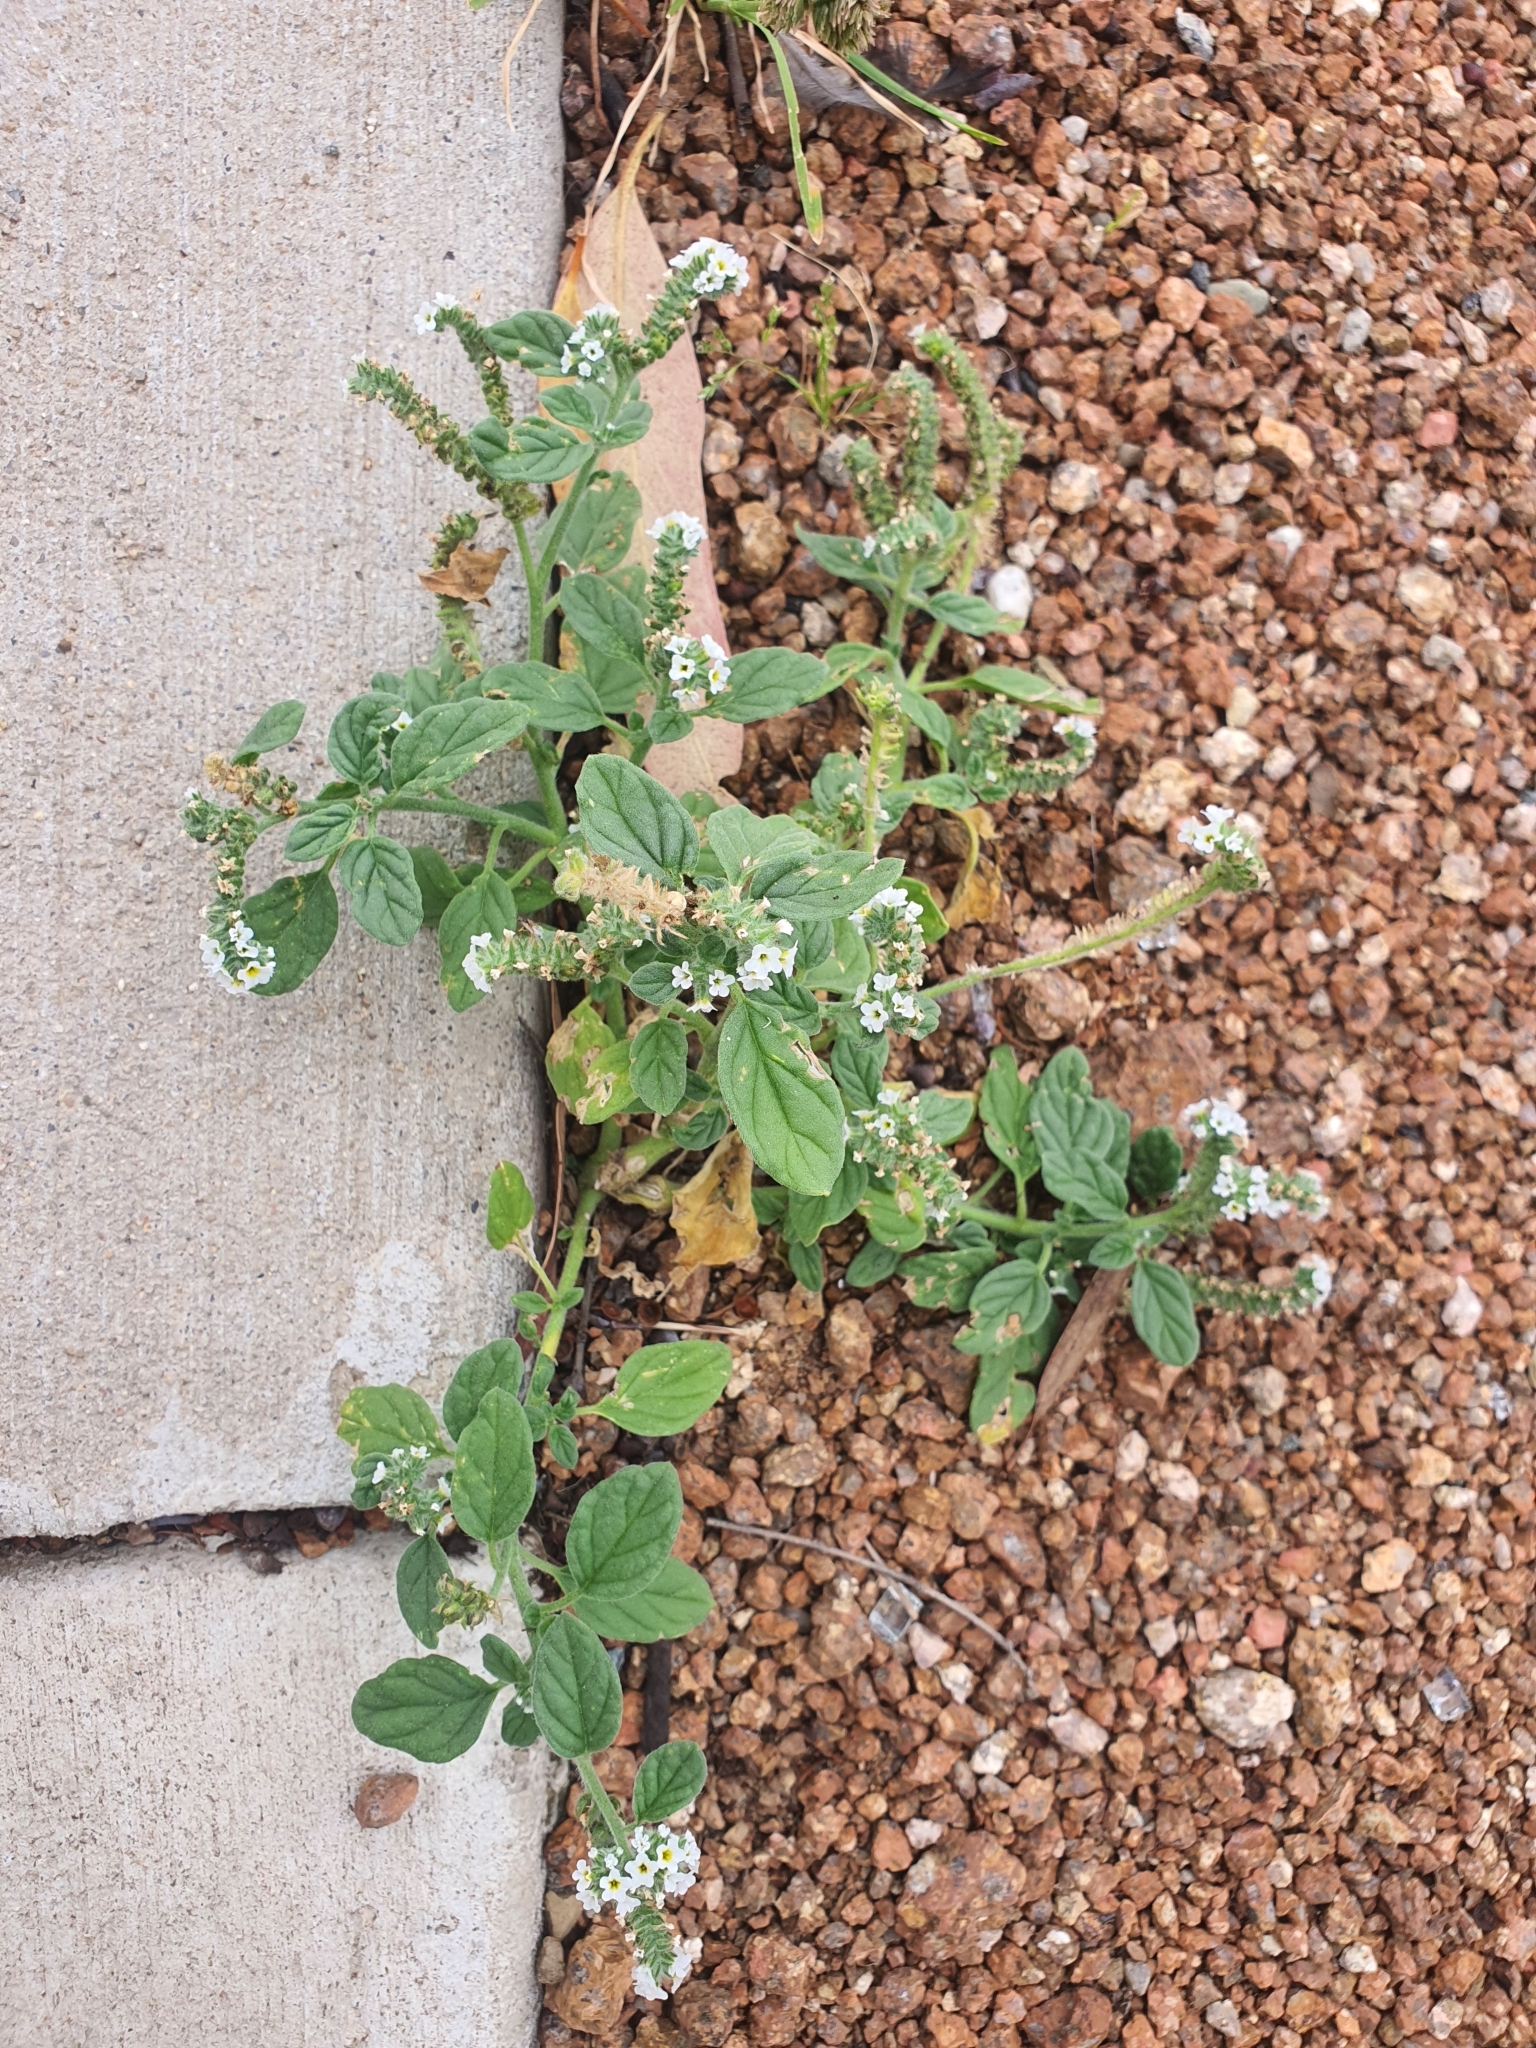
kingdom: Plantae
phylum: Tracheophyta
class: Magnoliopsida
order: Boraginales
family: Heliotropiaceae
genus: Heliotropium
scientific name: Heliotropium europaeum
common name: European heliotrope
